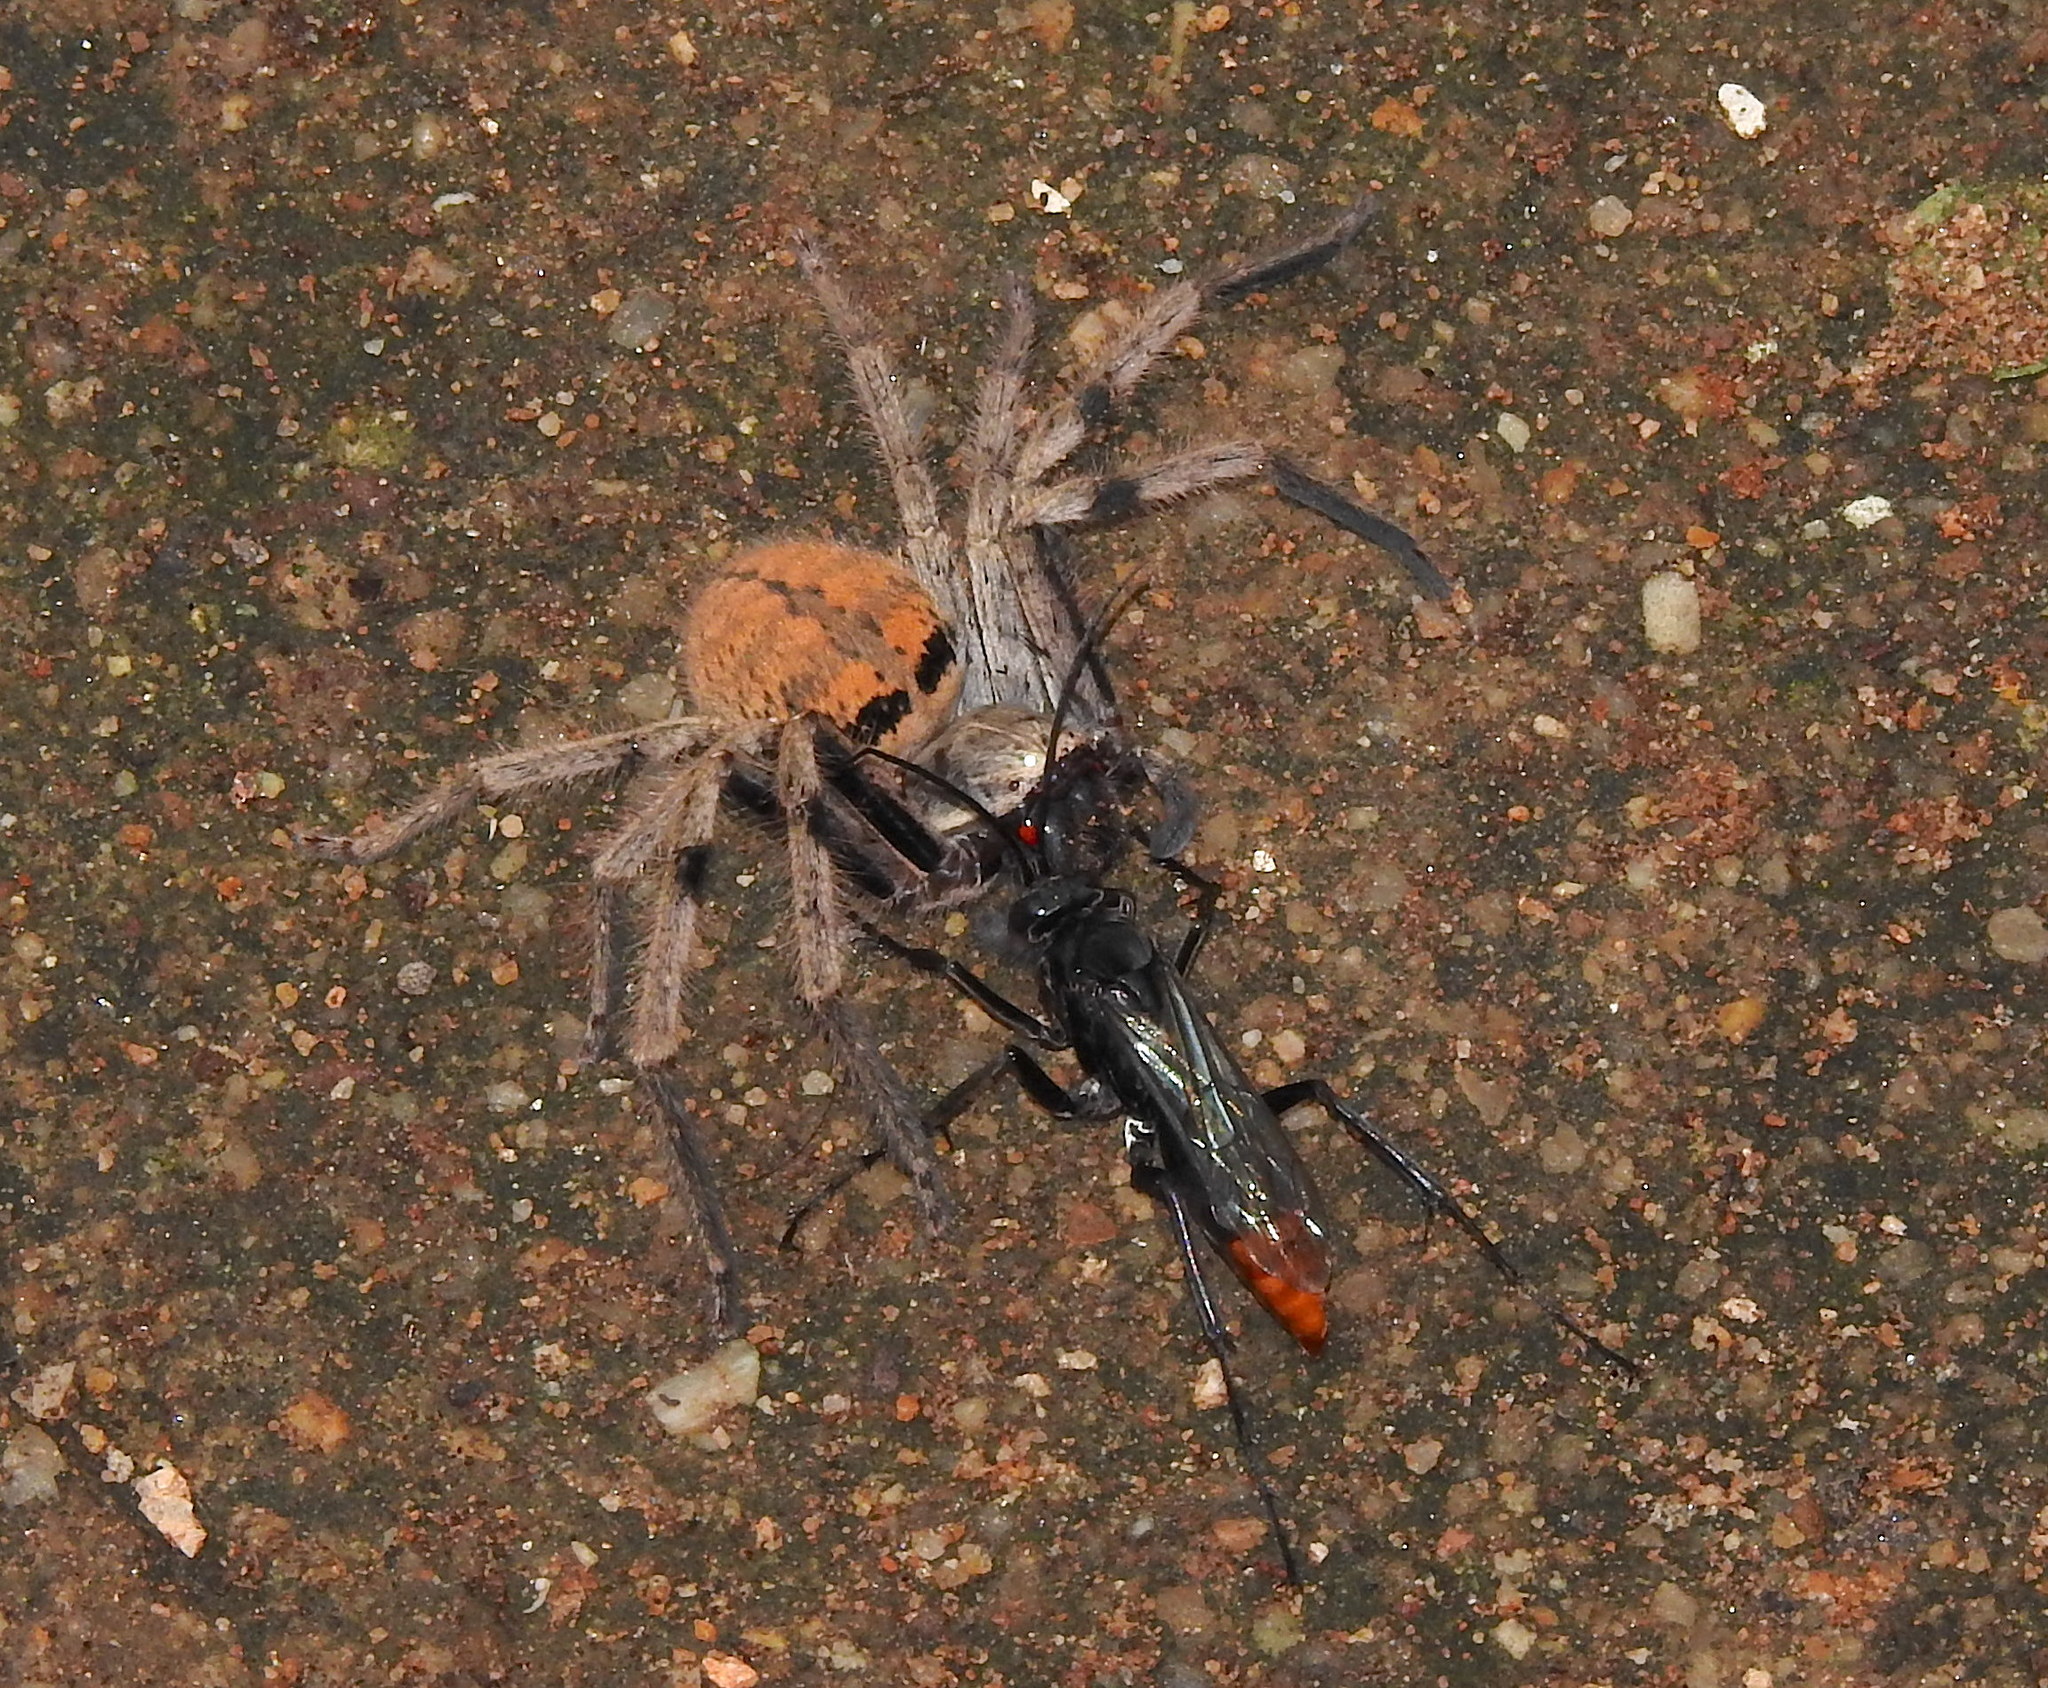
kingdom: Animalia
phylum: Arthropoda
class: Insecta
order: Hymenoptera
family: Pompilidae
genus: Tachypompilus
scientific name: Tachypompilus analis
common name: Spider wasp
